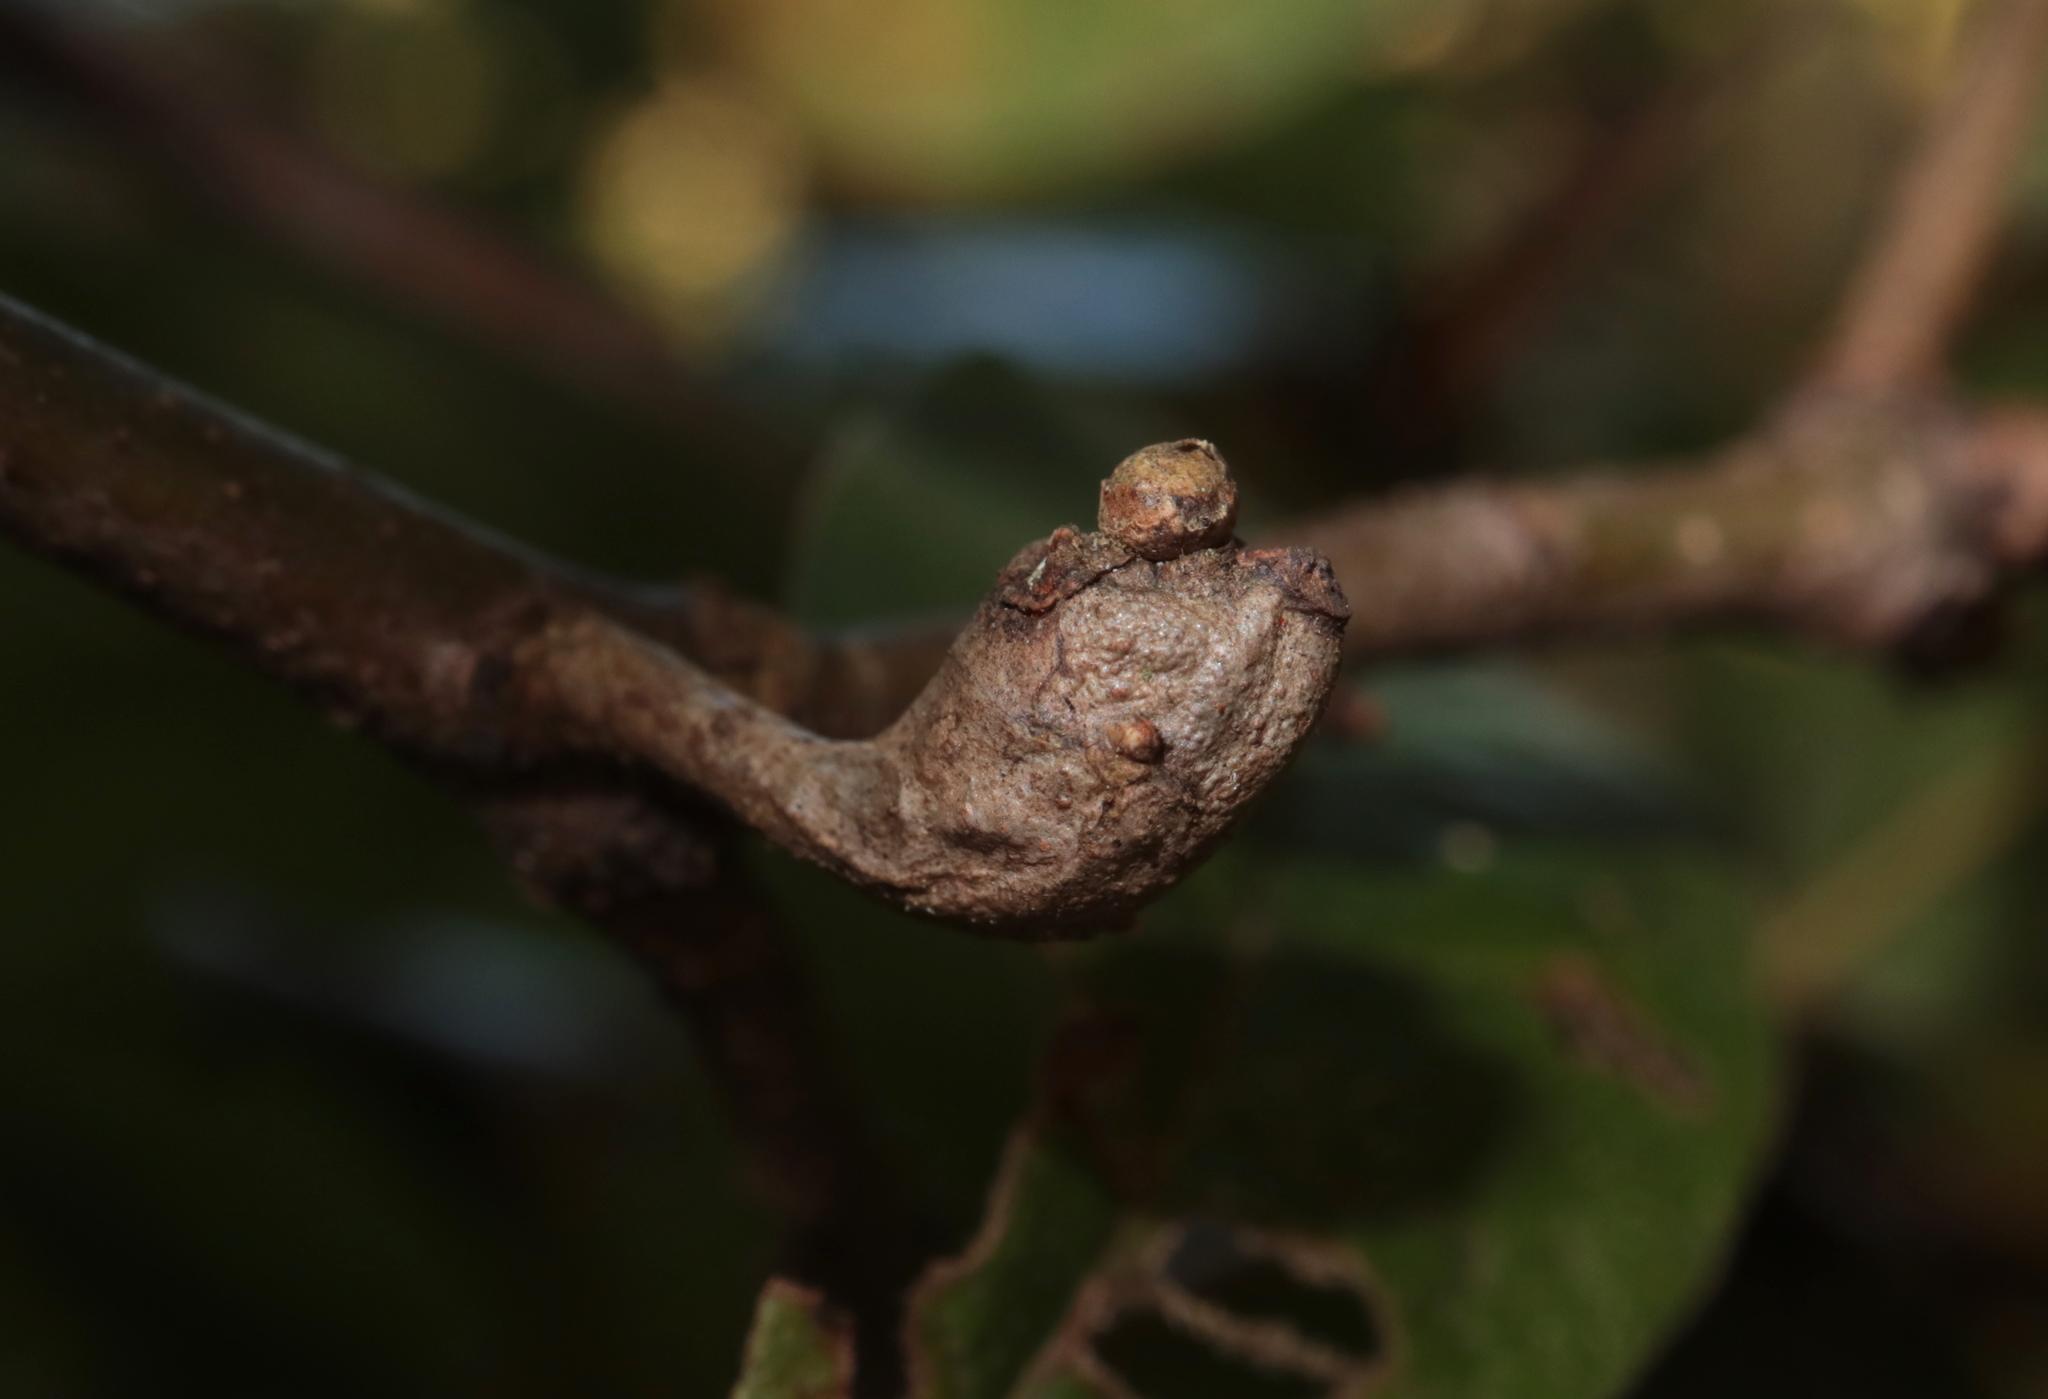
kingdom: Animalia
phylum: Arthropoda
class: Insecta
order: Hymenoptera
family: Cynipidae
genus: Zapatella
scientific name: Zapatella quercusphellos
